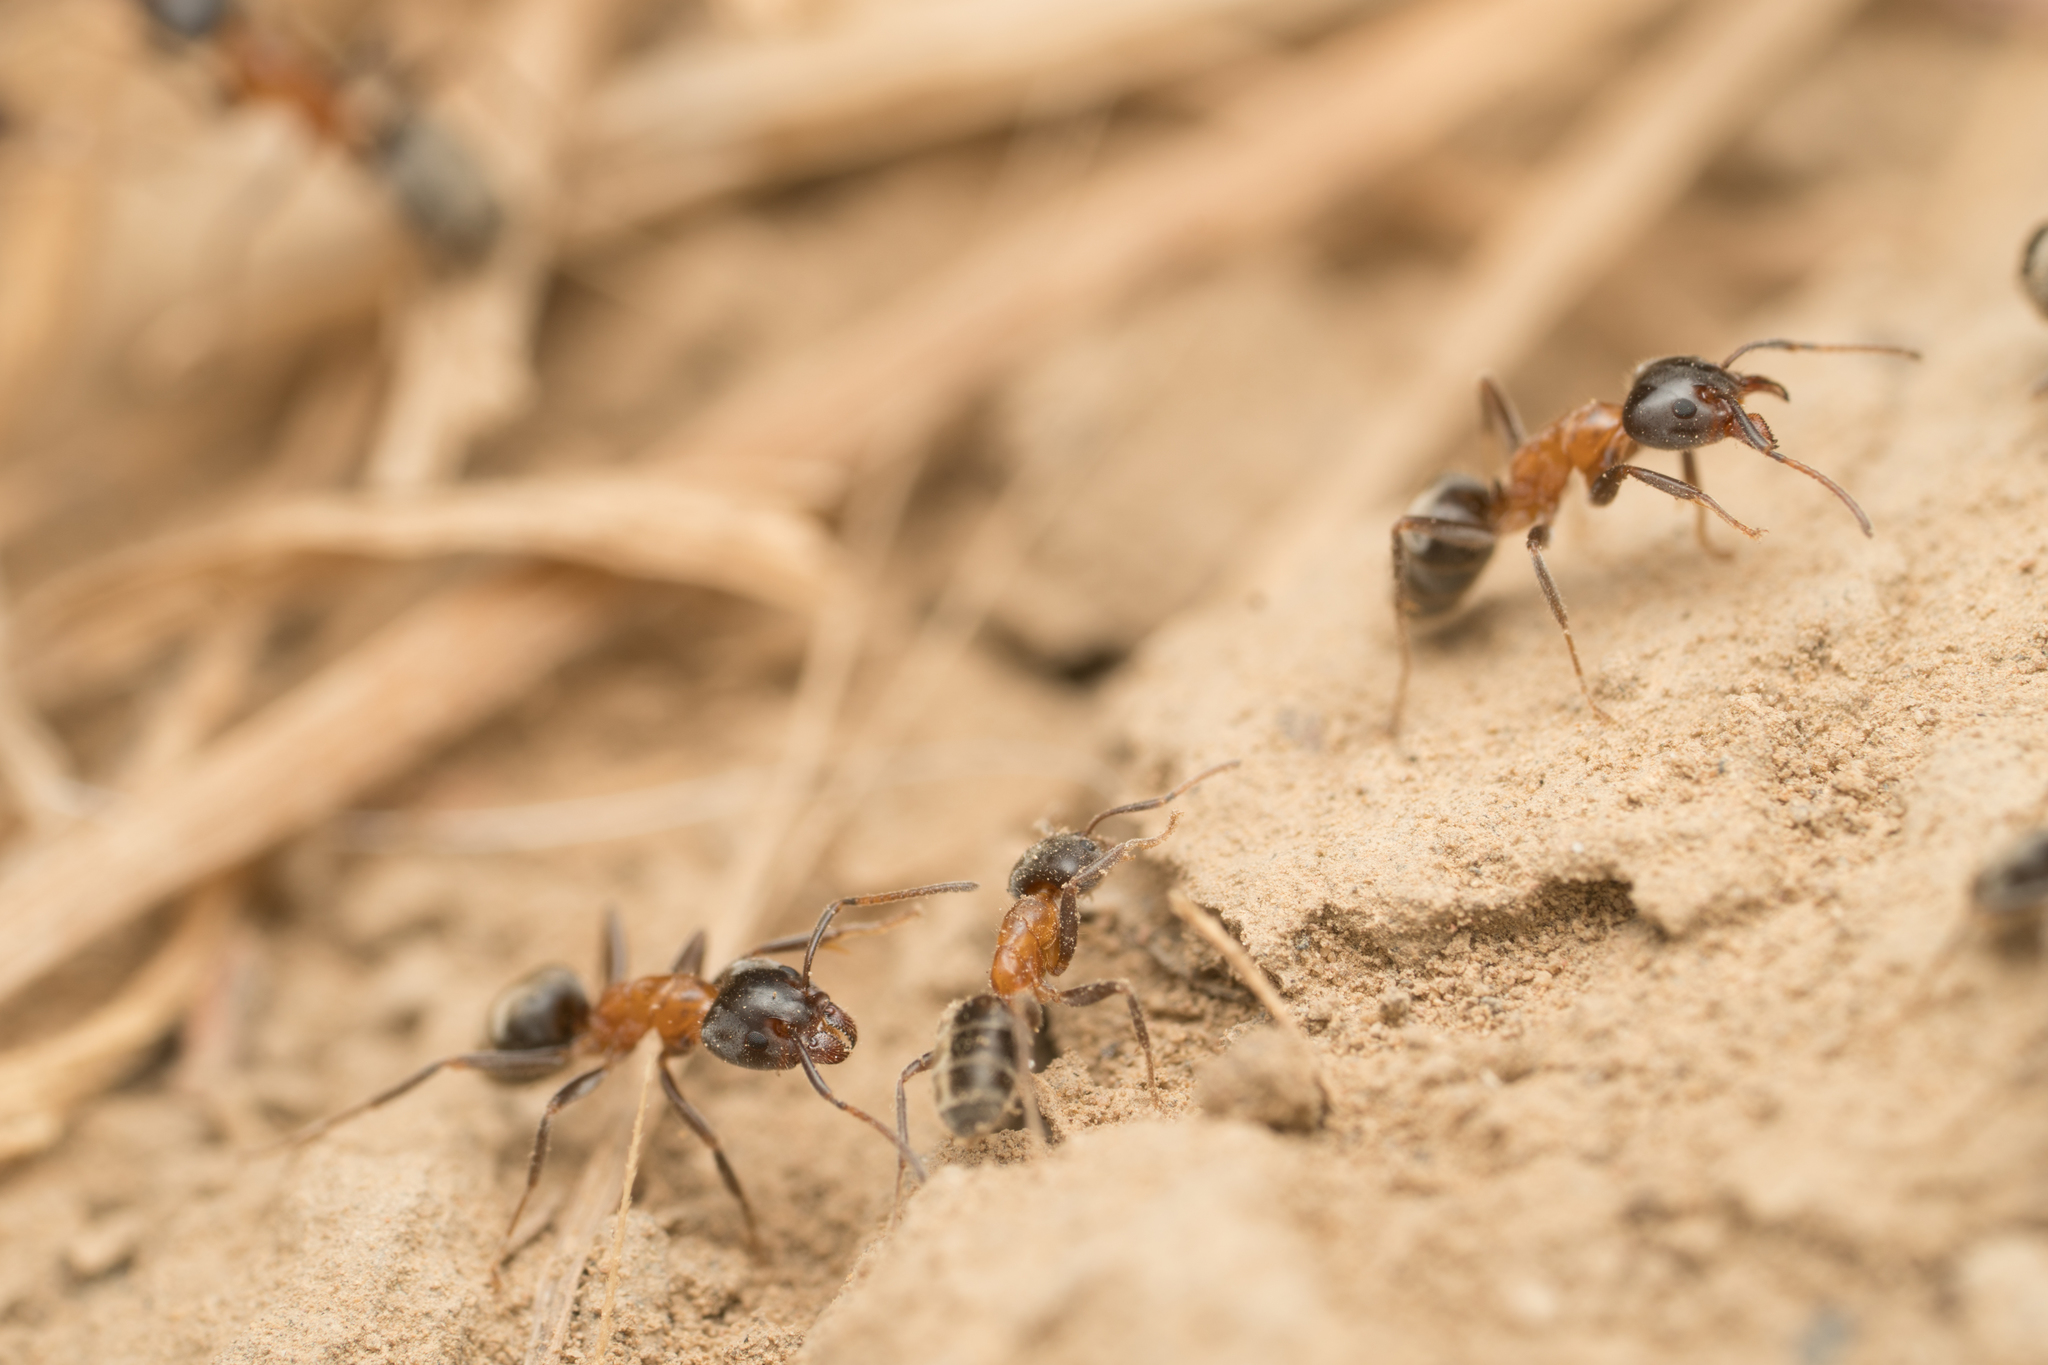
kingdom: Animalia
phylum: Arthropoda
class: Insecta
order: Hymenoptera
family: Formicidae
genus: Liometopum
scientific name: Liometopum occidentale
